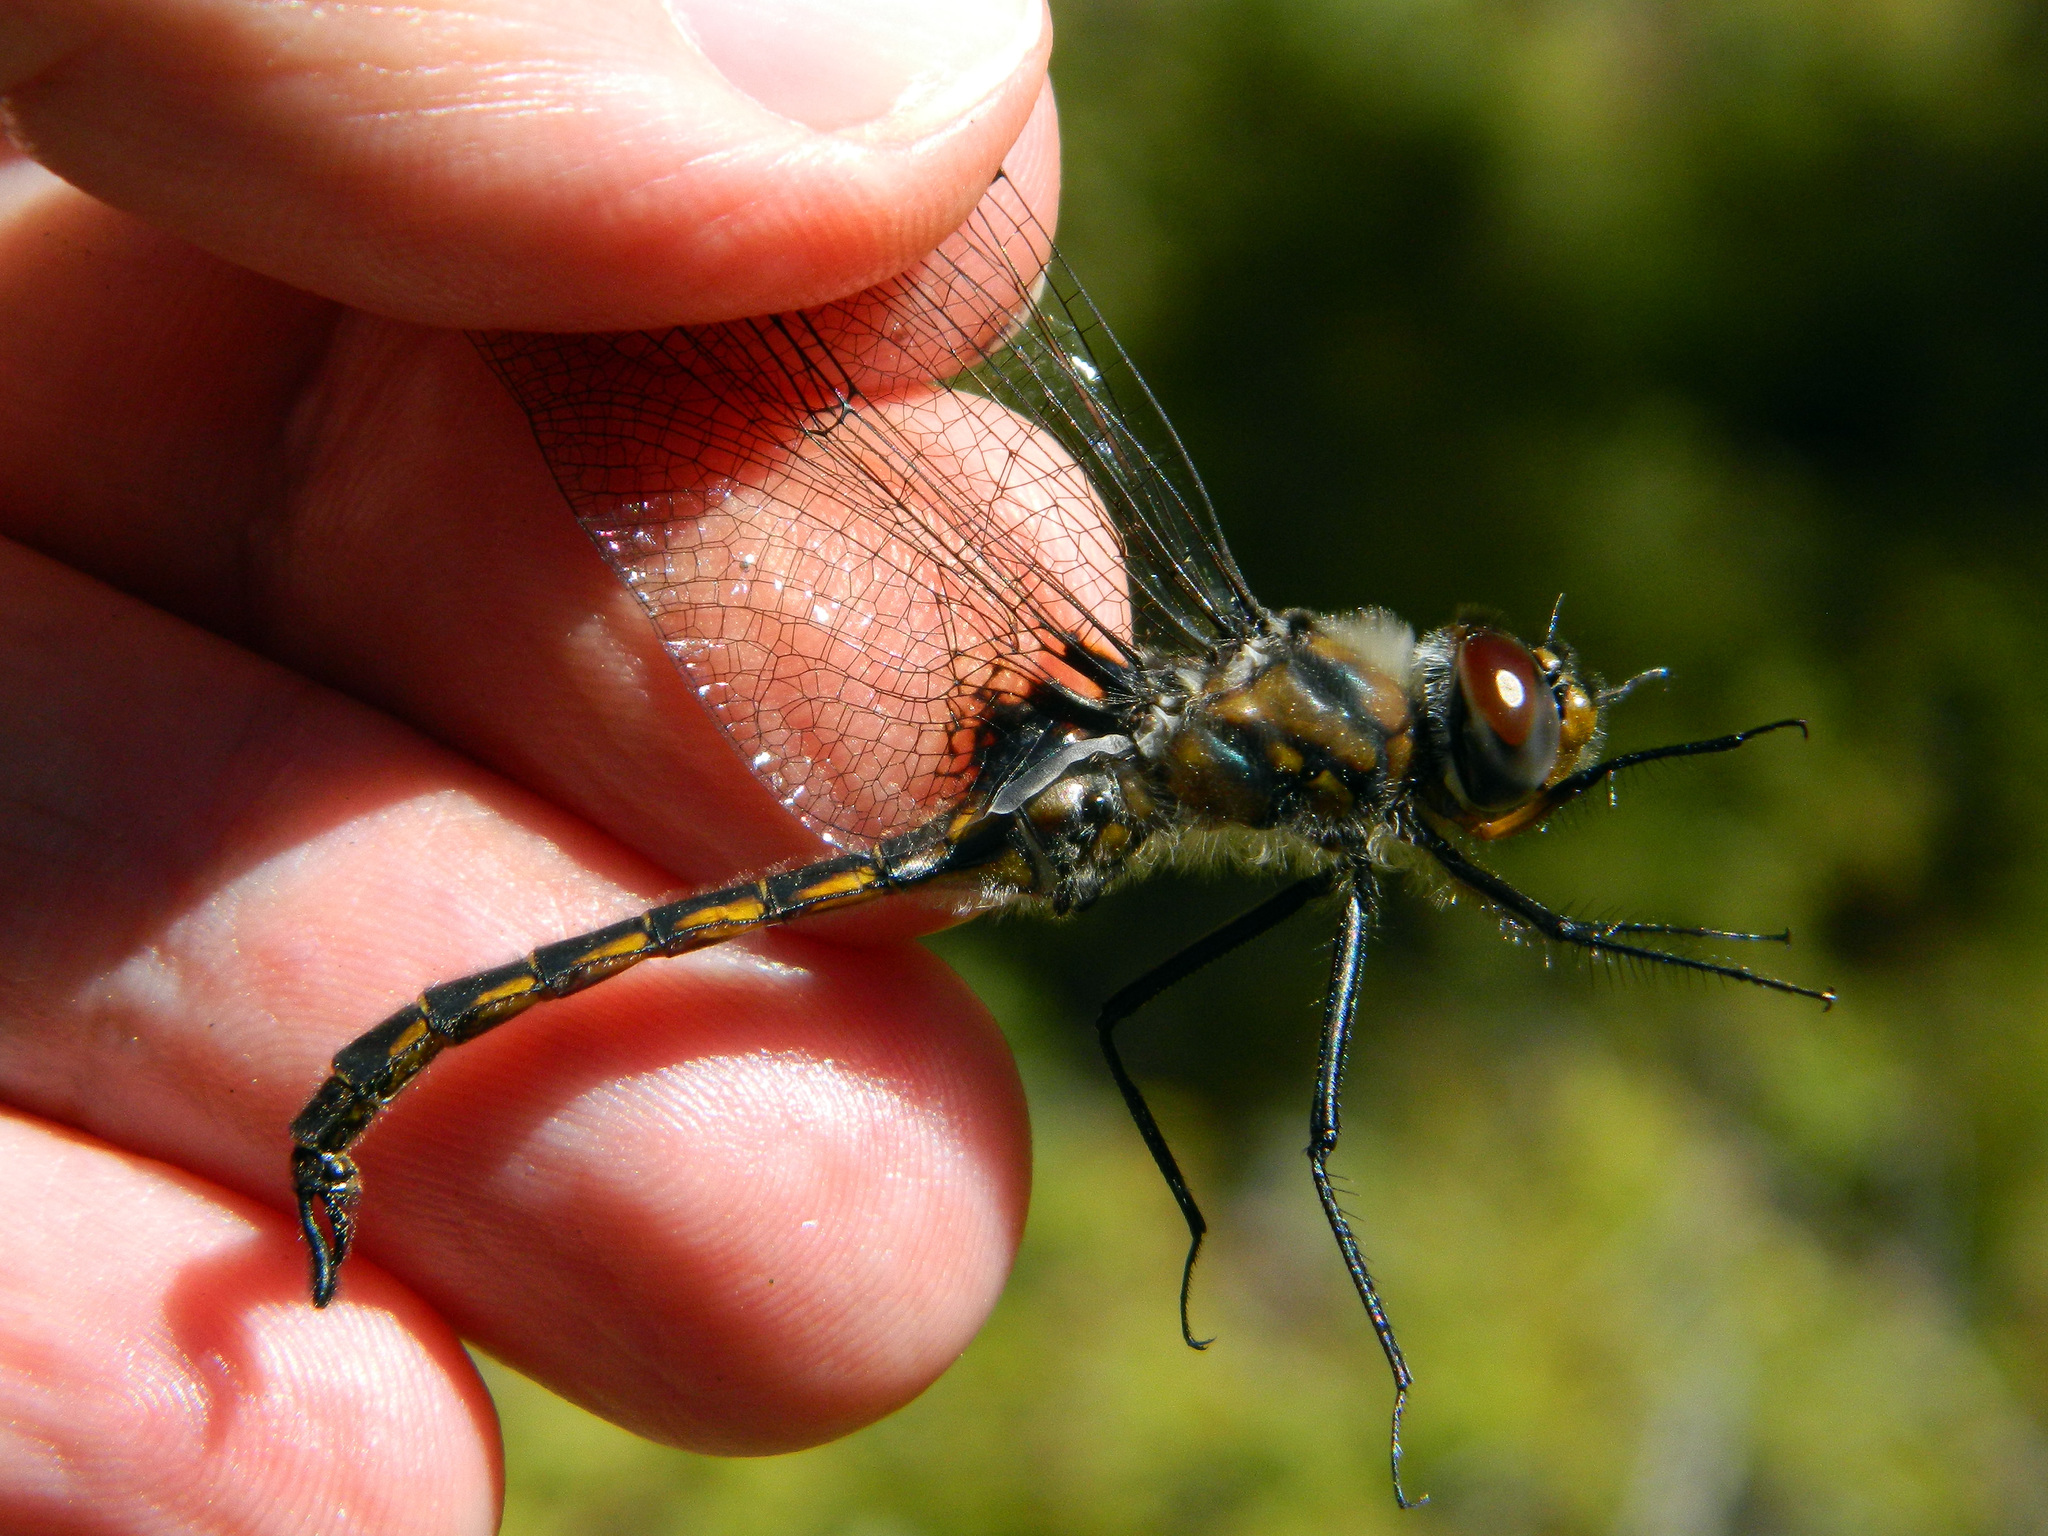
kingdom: Animalia
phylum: Arthropoda
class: Insecta
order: Odonata
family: Corduliidae
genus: Epitheca
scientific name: Epitheca spinigera
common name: Spiny baskettail
